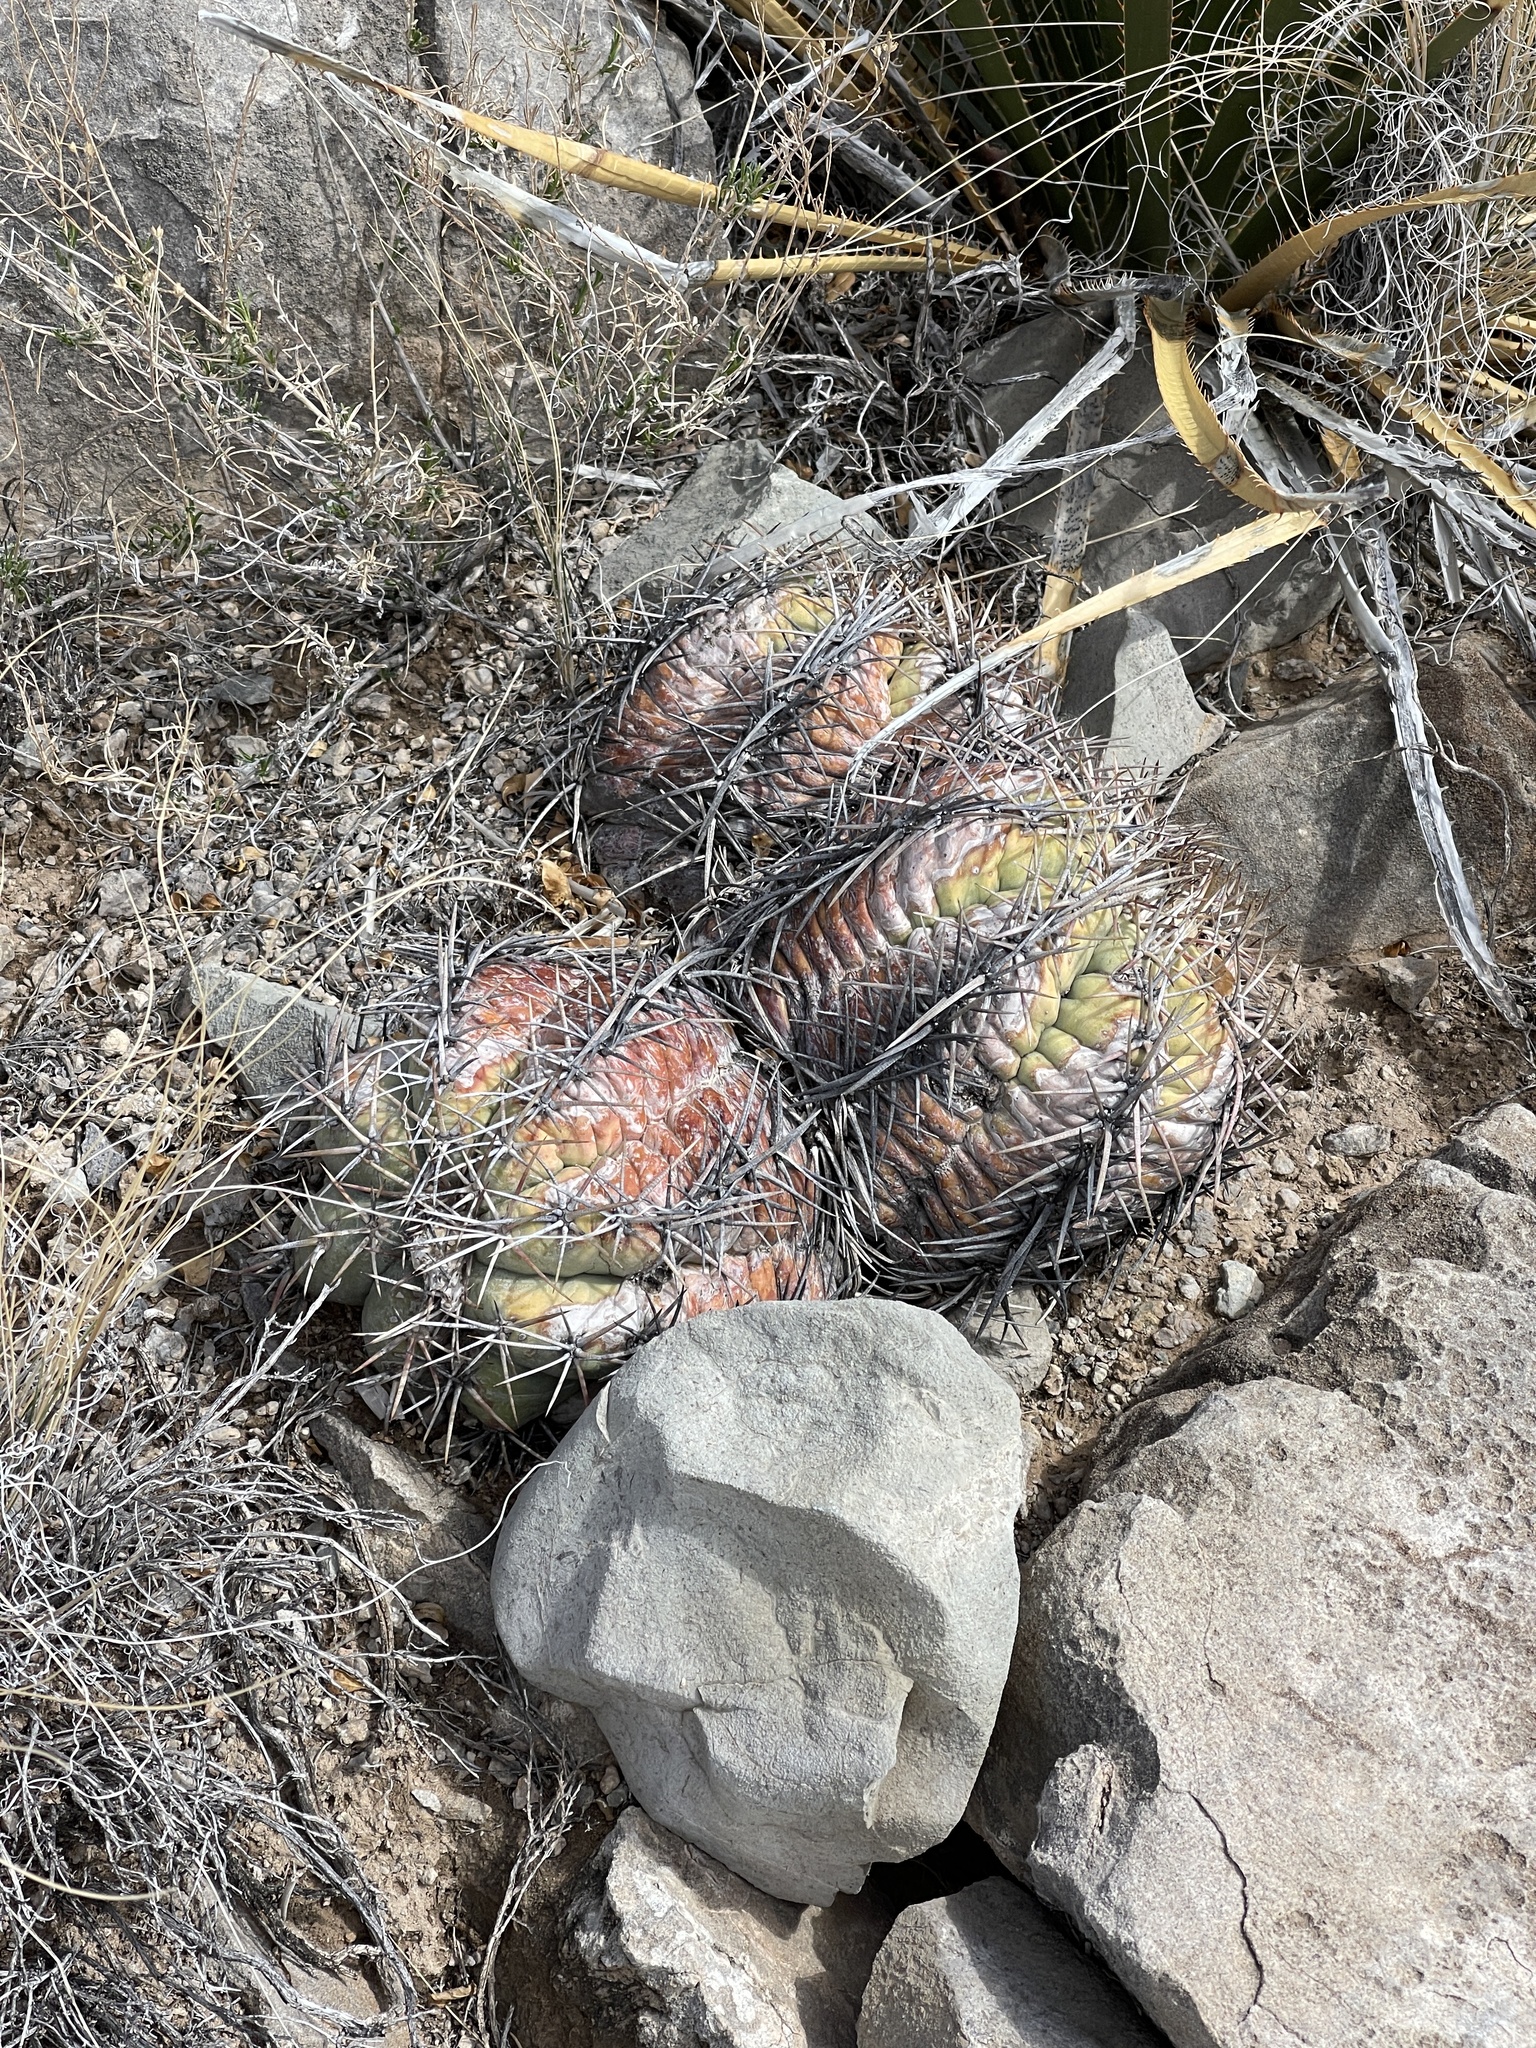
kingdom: Plantae
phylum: Tracheophyta
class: Magnoliopsida
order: Caryophyllales
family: Cactaceae
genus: Echinocactus
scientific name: Echinocactus horizonthalonius
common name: Devilshead
